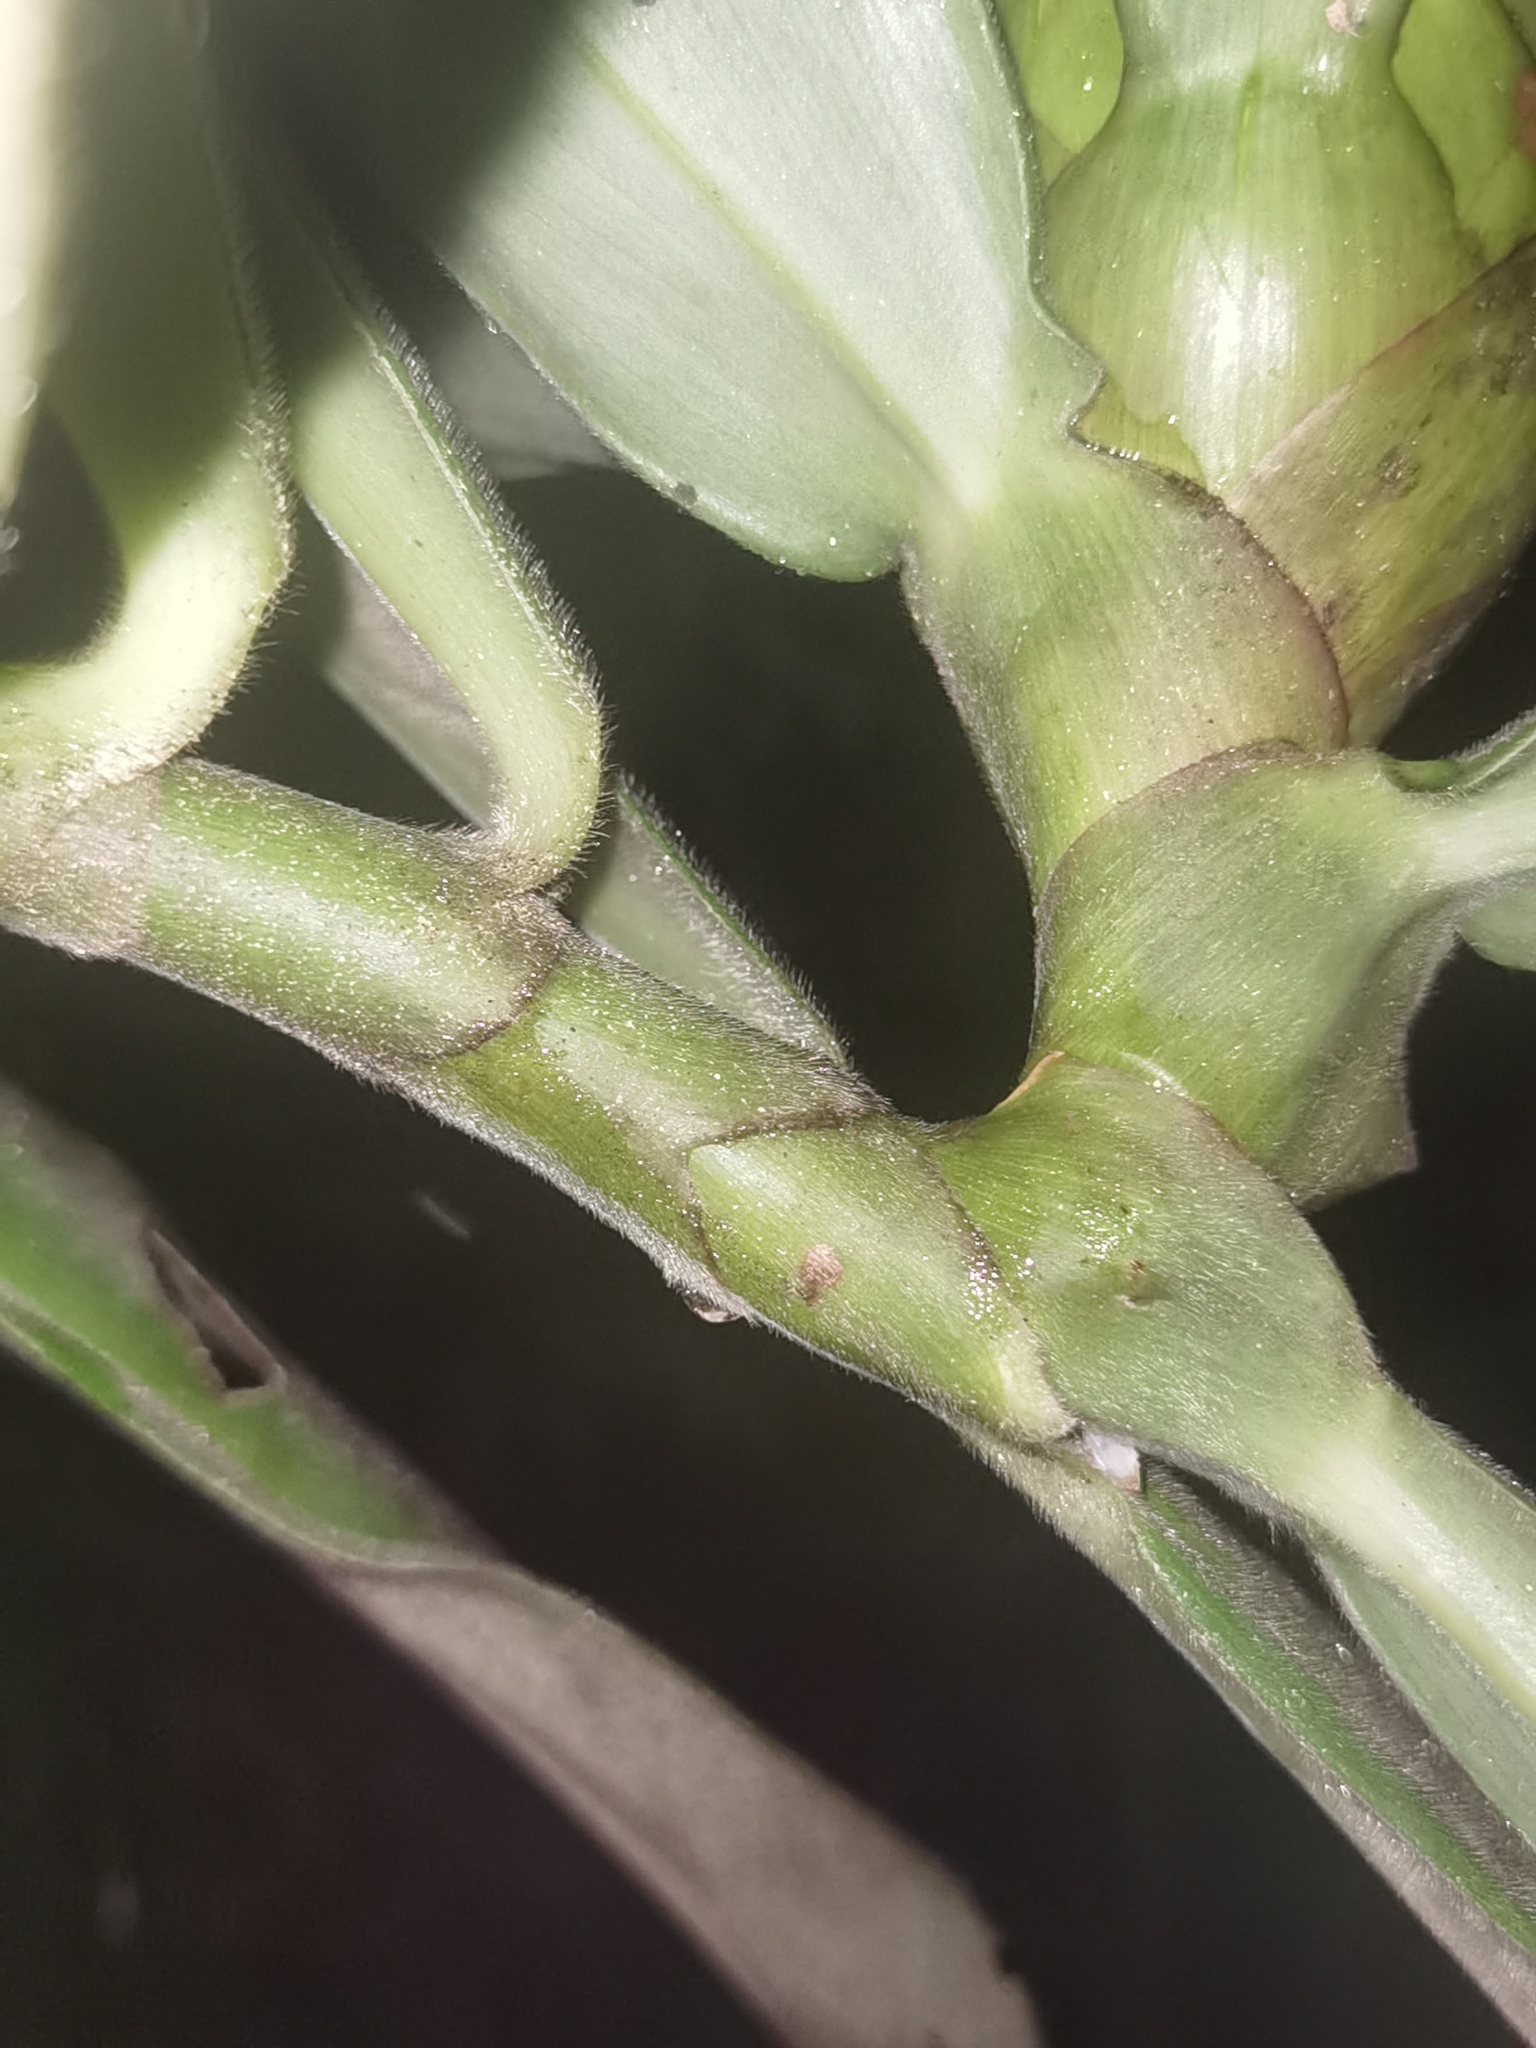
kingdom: Plantae
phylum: Tracheophyta
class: Liliopsida
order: Zingiberales
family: Costaceae
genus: Costus
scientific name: Costus guanaiensis
